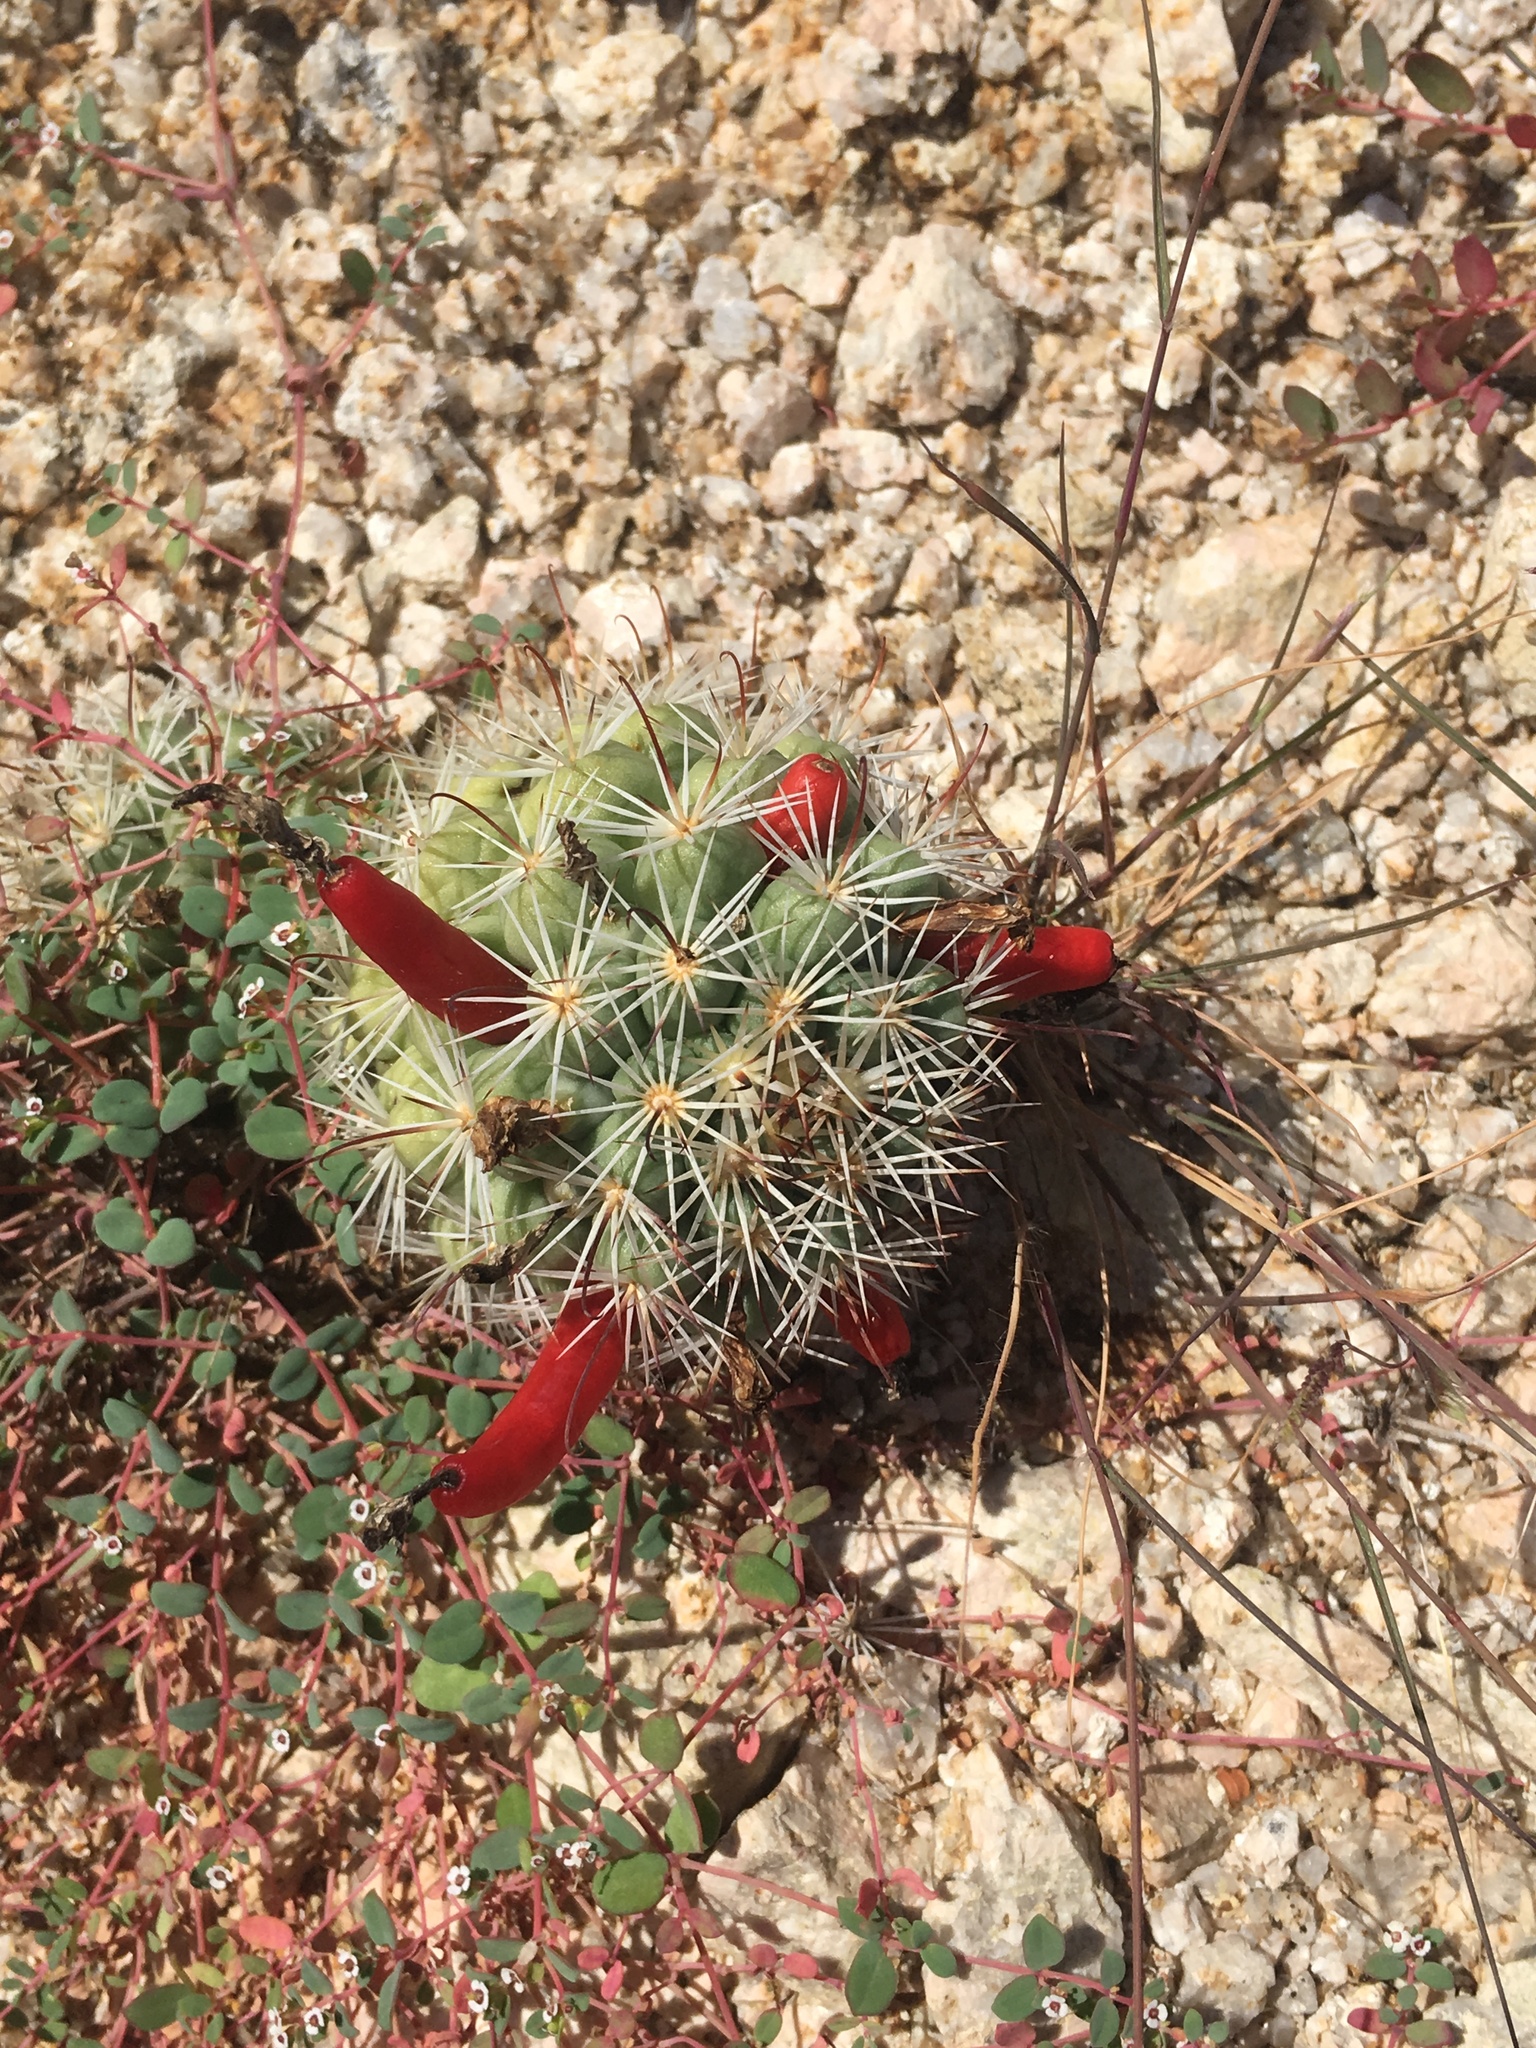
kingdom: Plantae
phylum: Tracheophyta
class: Magnoliopsida
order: Caryophyllales
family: Cactaceae
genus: Cochemiea
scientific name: Cochemiea schumannii
